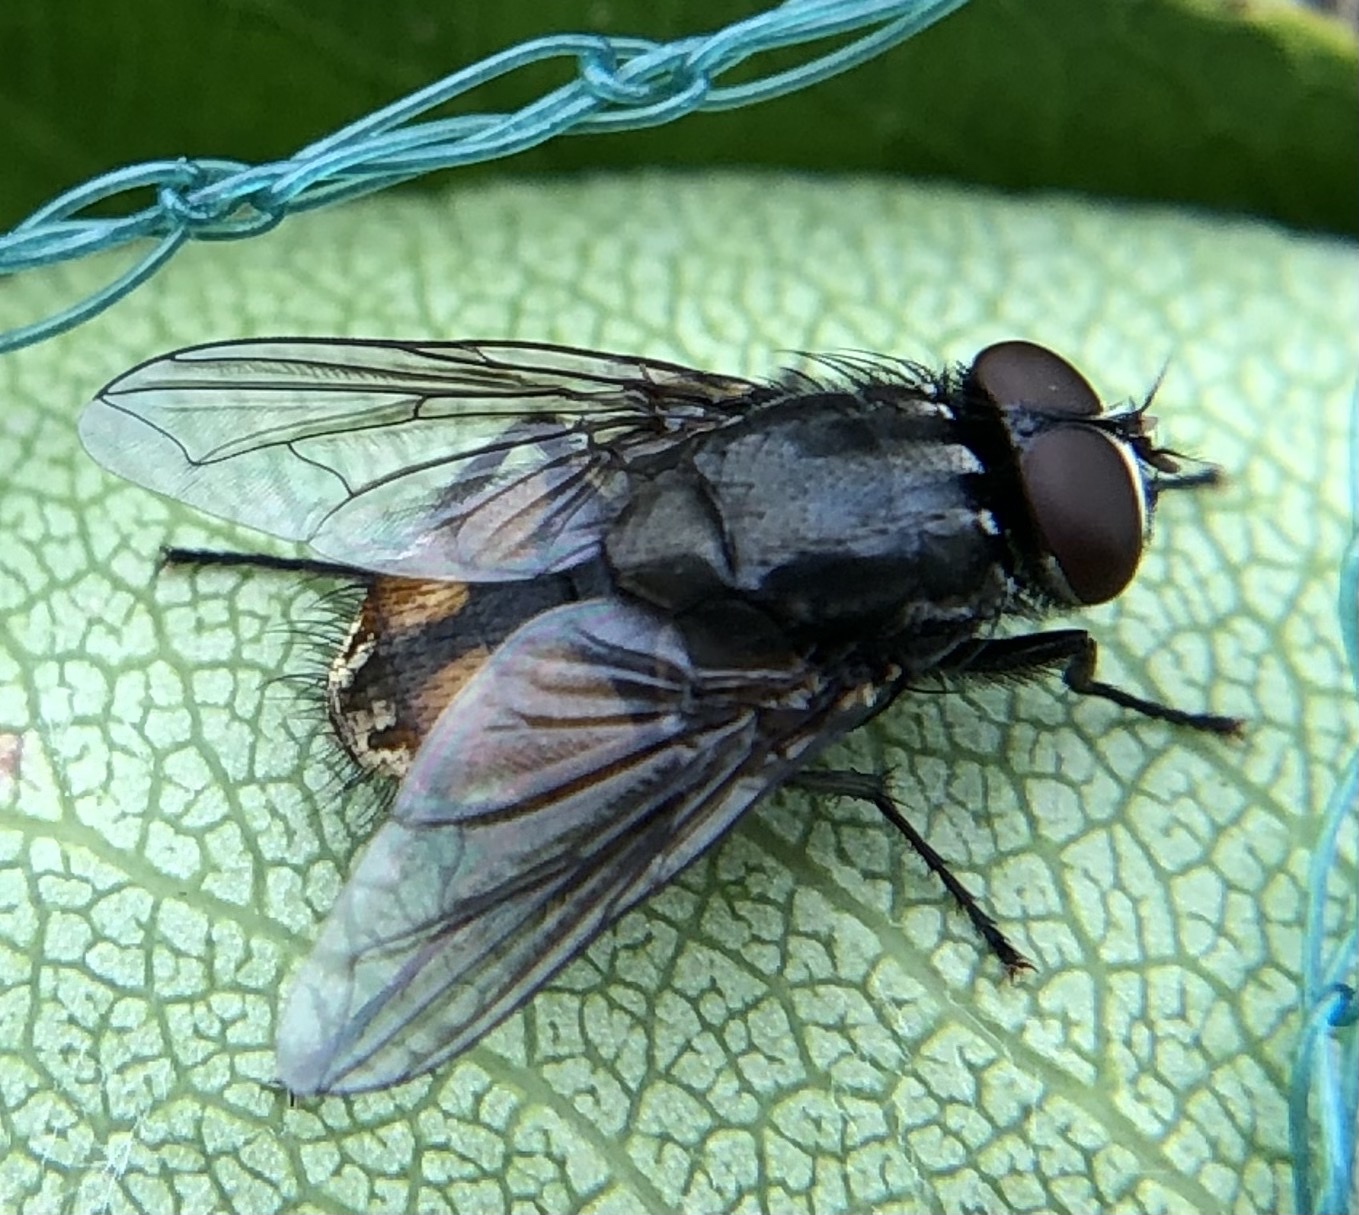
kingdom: Animalia
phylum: Arthropoda
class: Insecta
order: Diptera
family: Muscidae
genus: Musca
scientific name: Musca autumnalis
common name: Face fly
